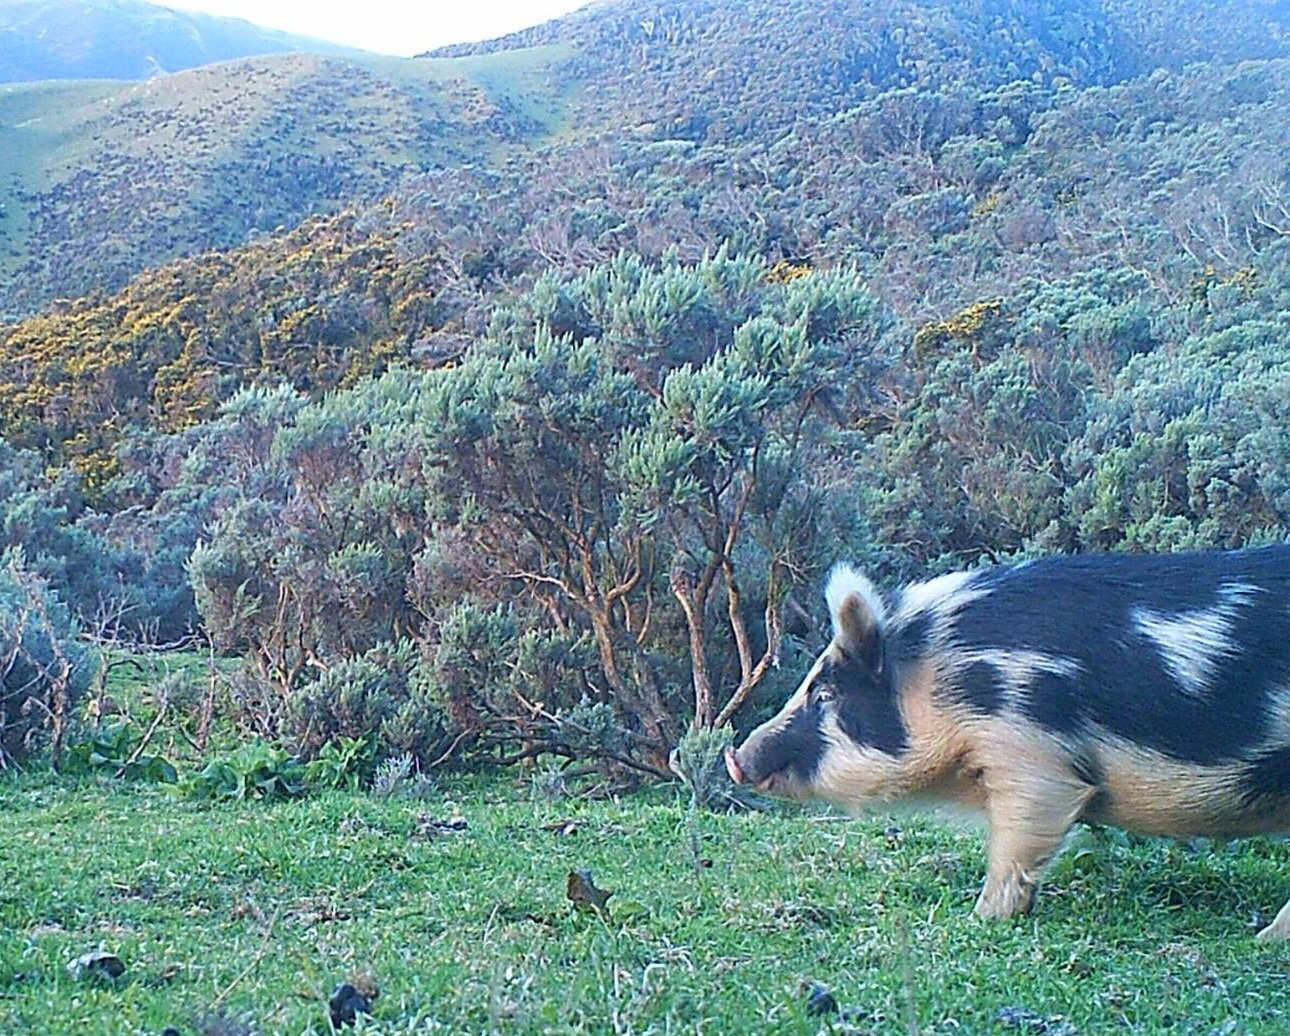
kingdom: Animalia
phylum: Chordata
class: Mammalia
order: Artiodactyla
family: Suidae
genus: Sus
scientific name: Sus scrofa
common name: Wild boar
